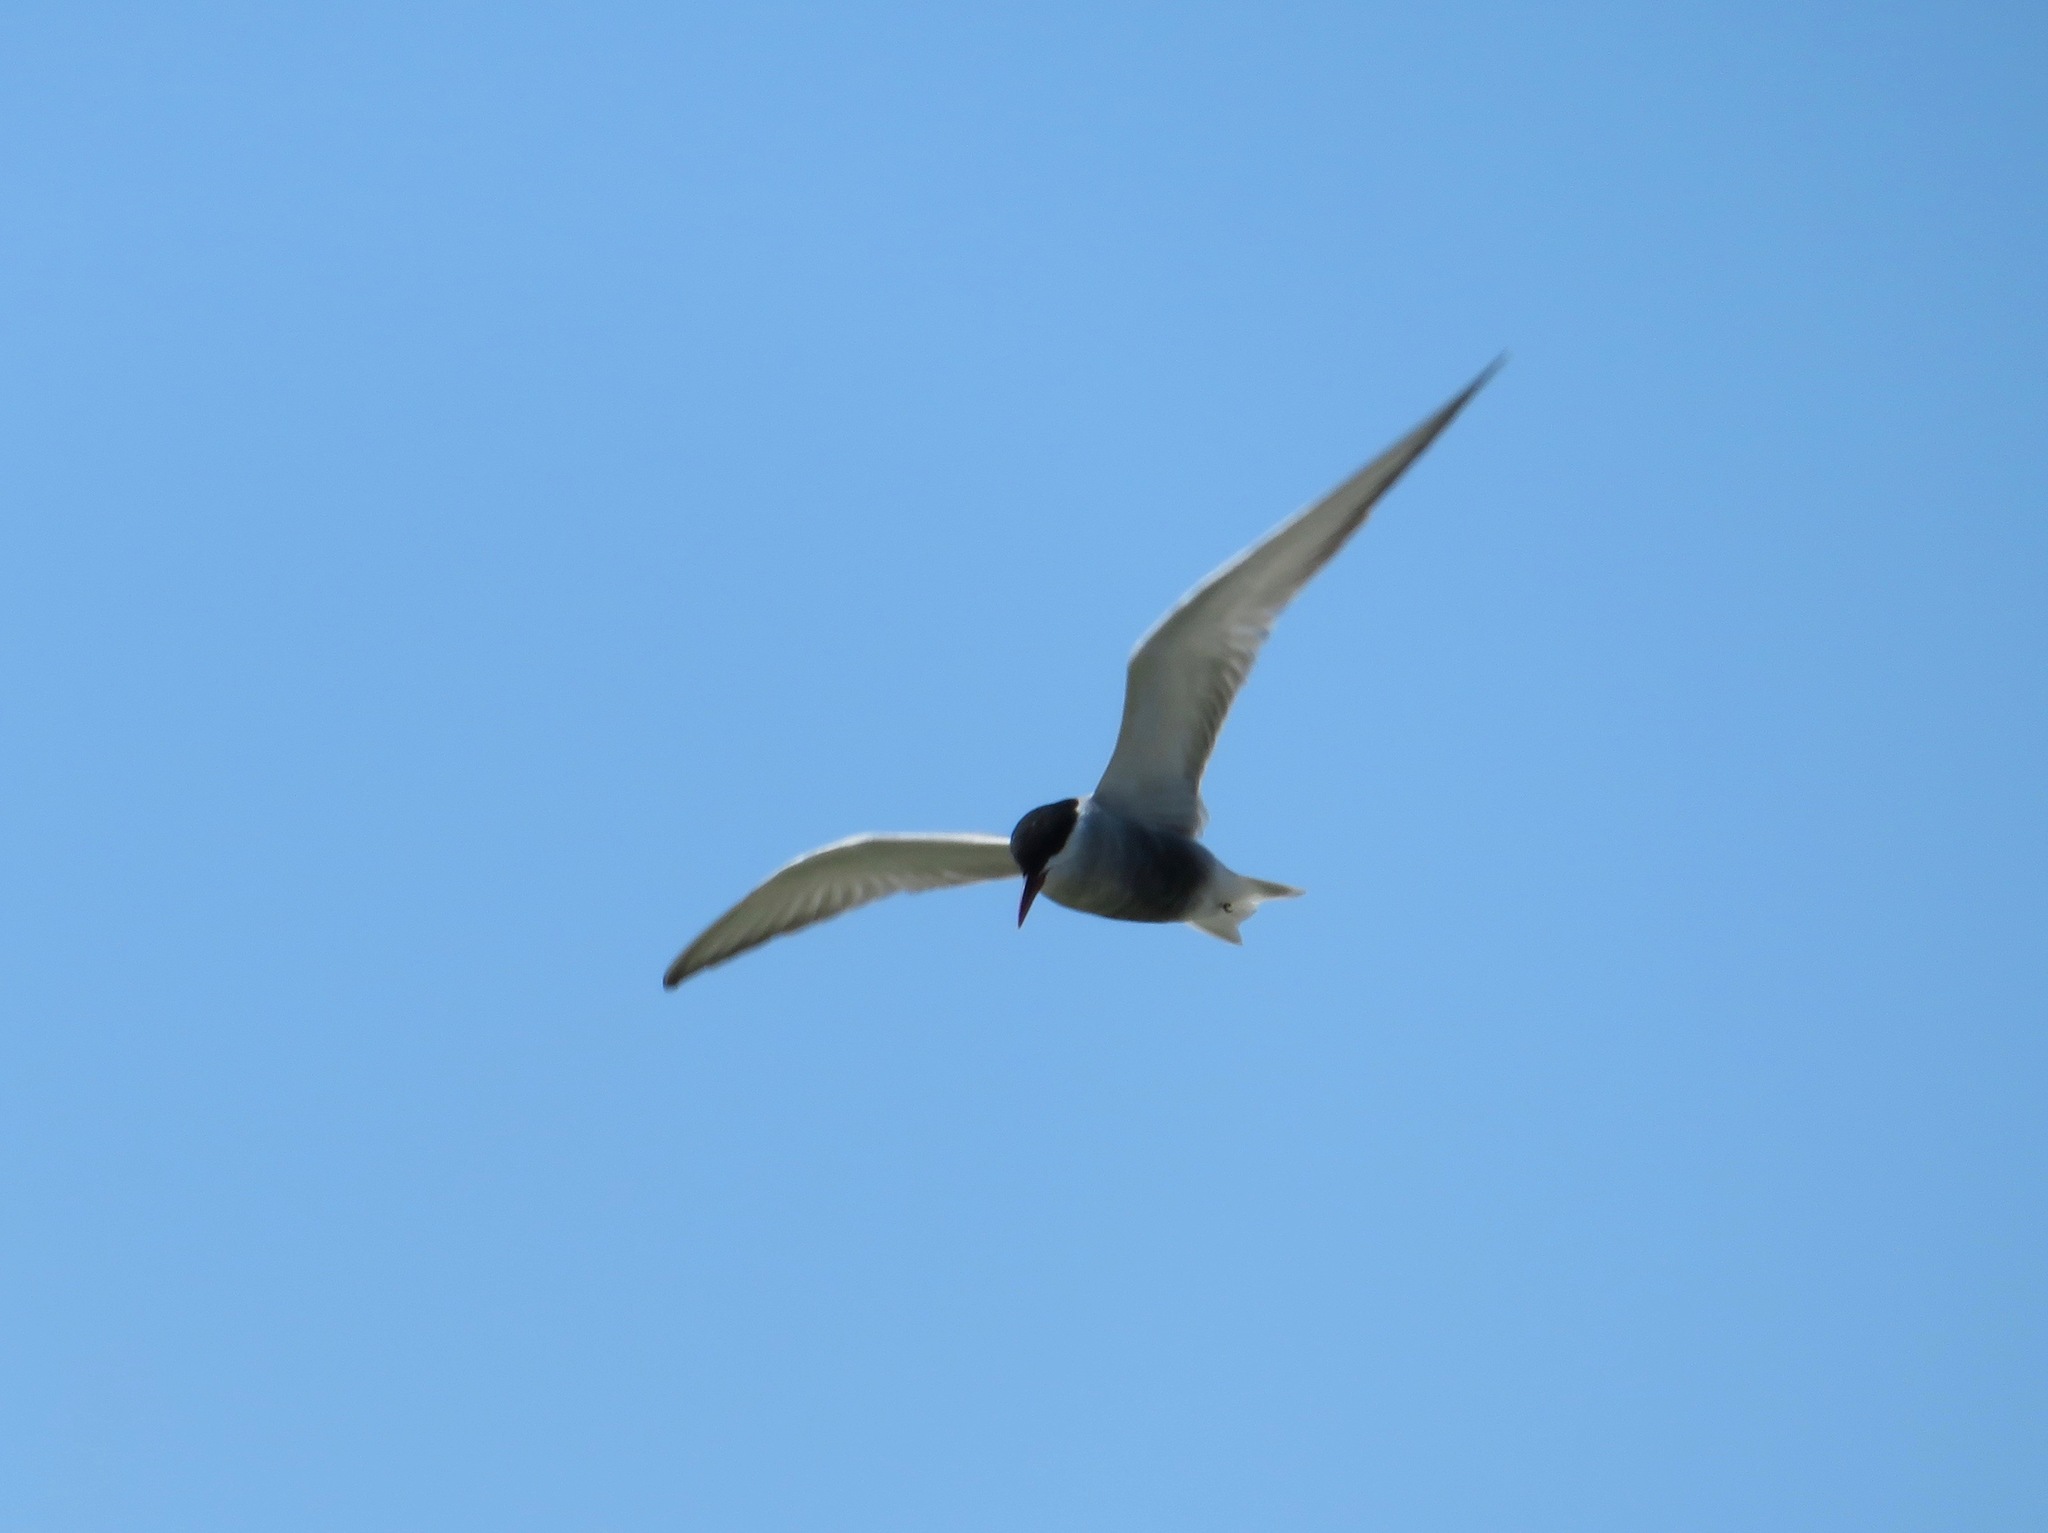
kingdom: Animalia
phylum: Chordata
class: Aves
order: Charadriiformes
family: Laridae
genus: Chlidonias
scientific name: Chlidonias hybrida
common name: Whiskered tern
